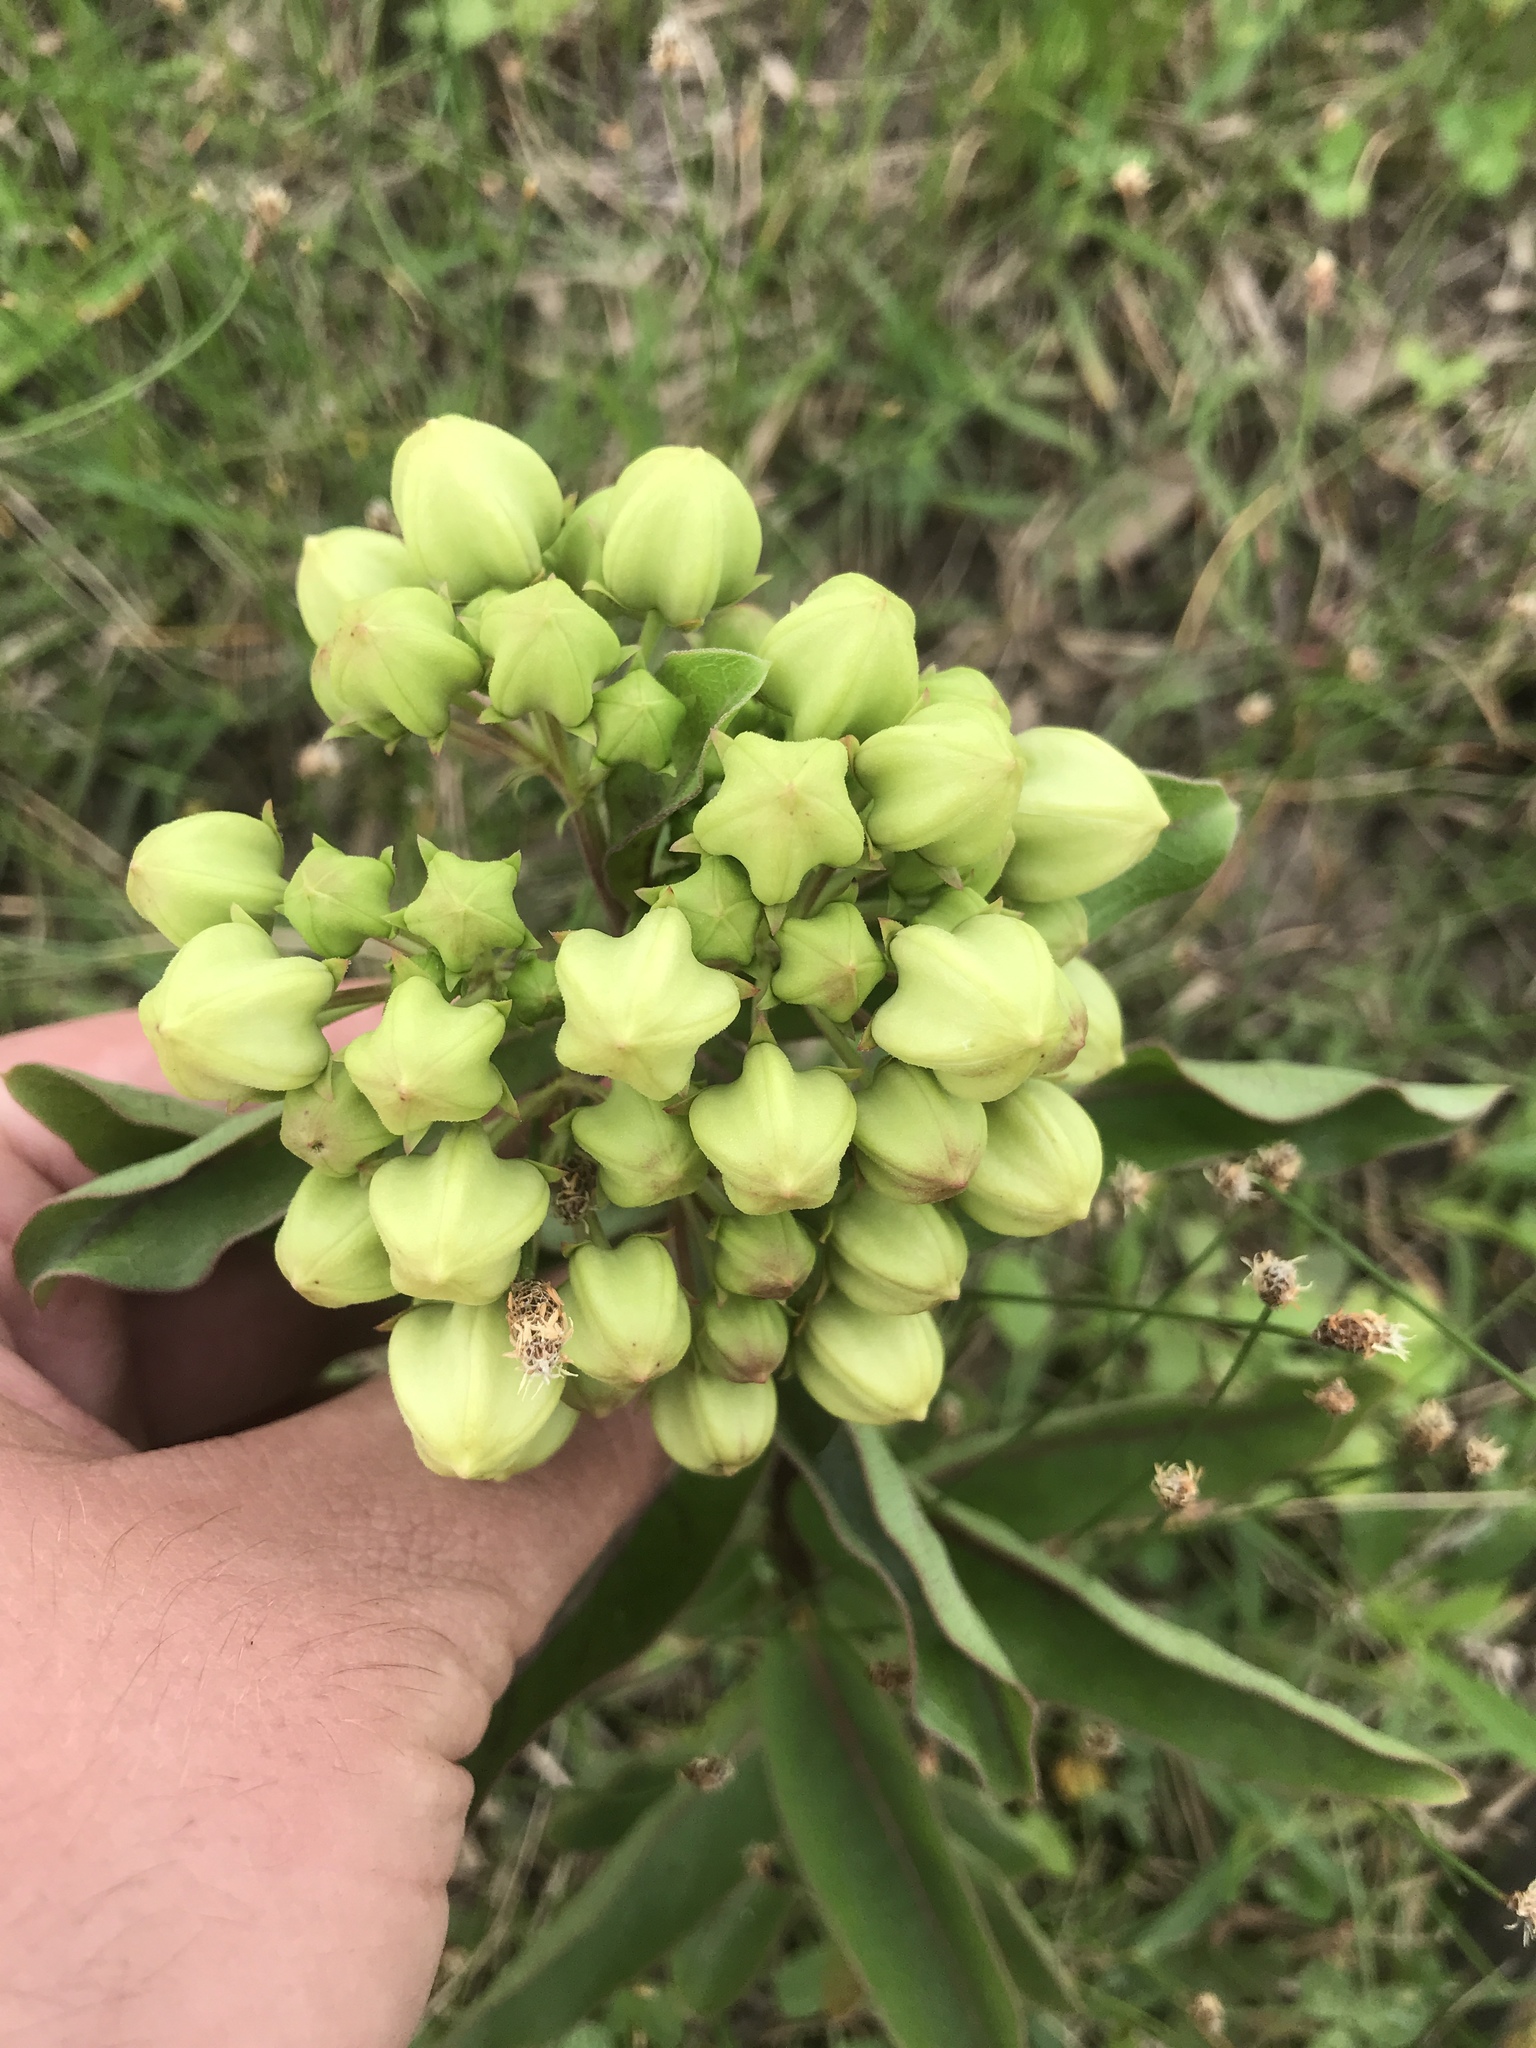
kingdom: Plantae
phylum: Tracheophyta
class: Magnoliopsida
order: Gentianales
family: Apocynaceae
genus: Asclepias
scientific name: Asclepias viridis
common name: Antelope-horns
